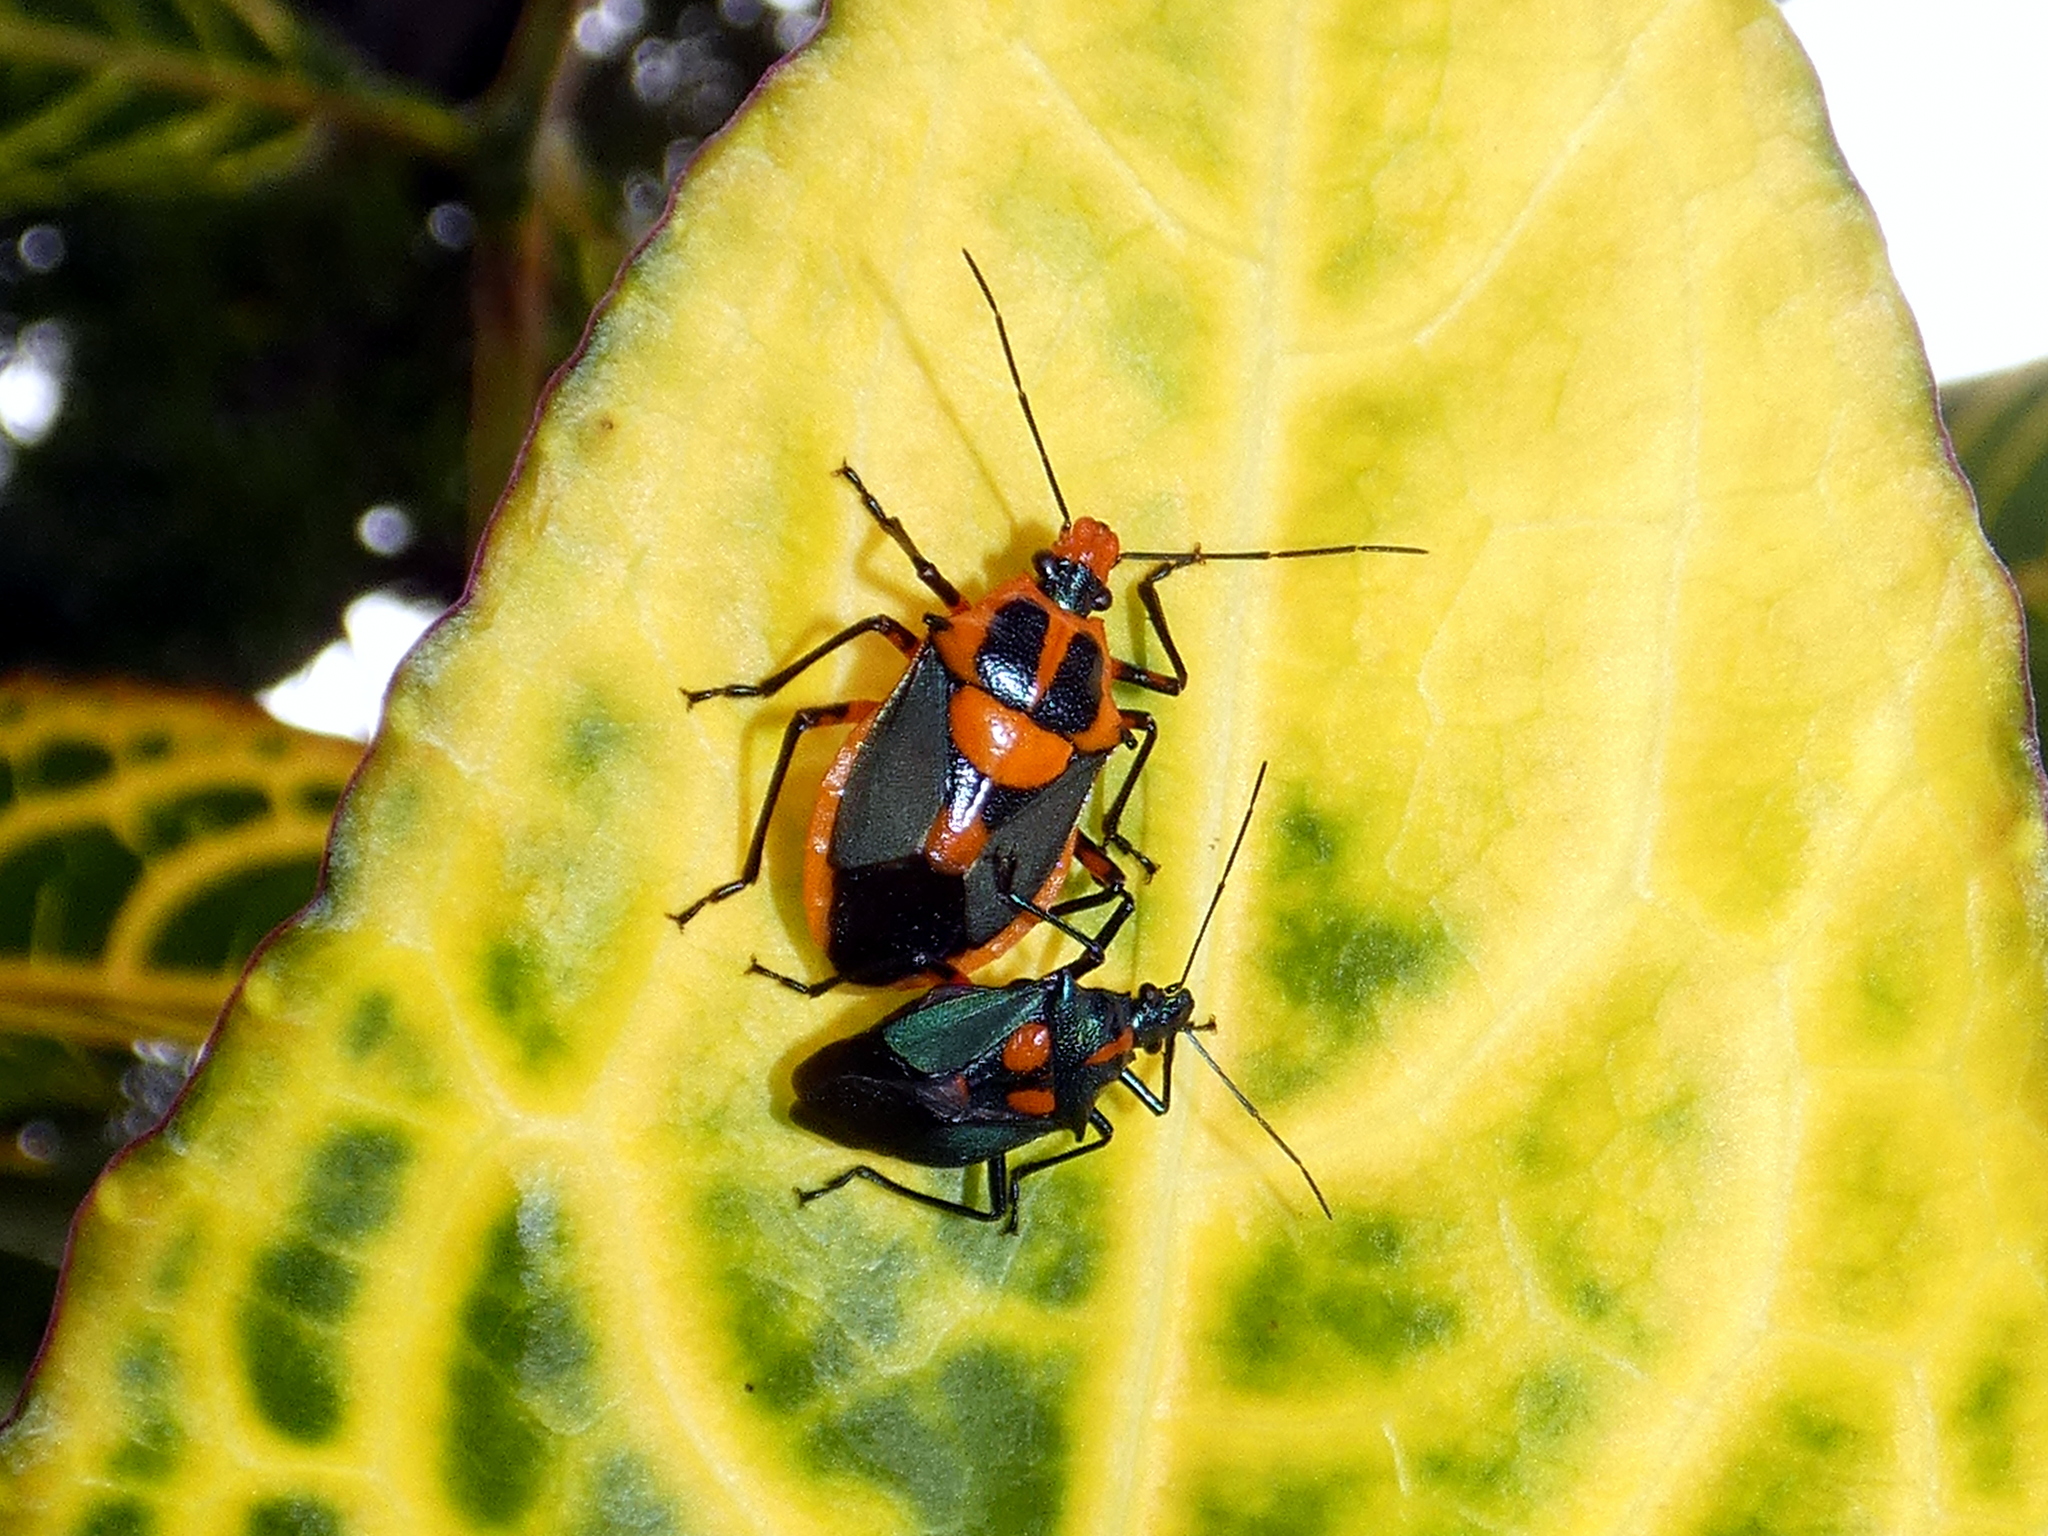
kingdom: Animalia
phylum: Arthropoda
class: Insecta
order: Hemiptera
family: Pentatomidae
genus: Euthyrhynchus
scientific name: Euthyrhynchus floridanus
